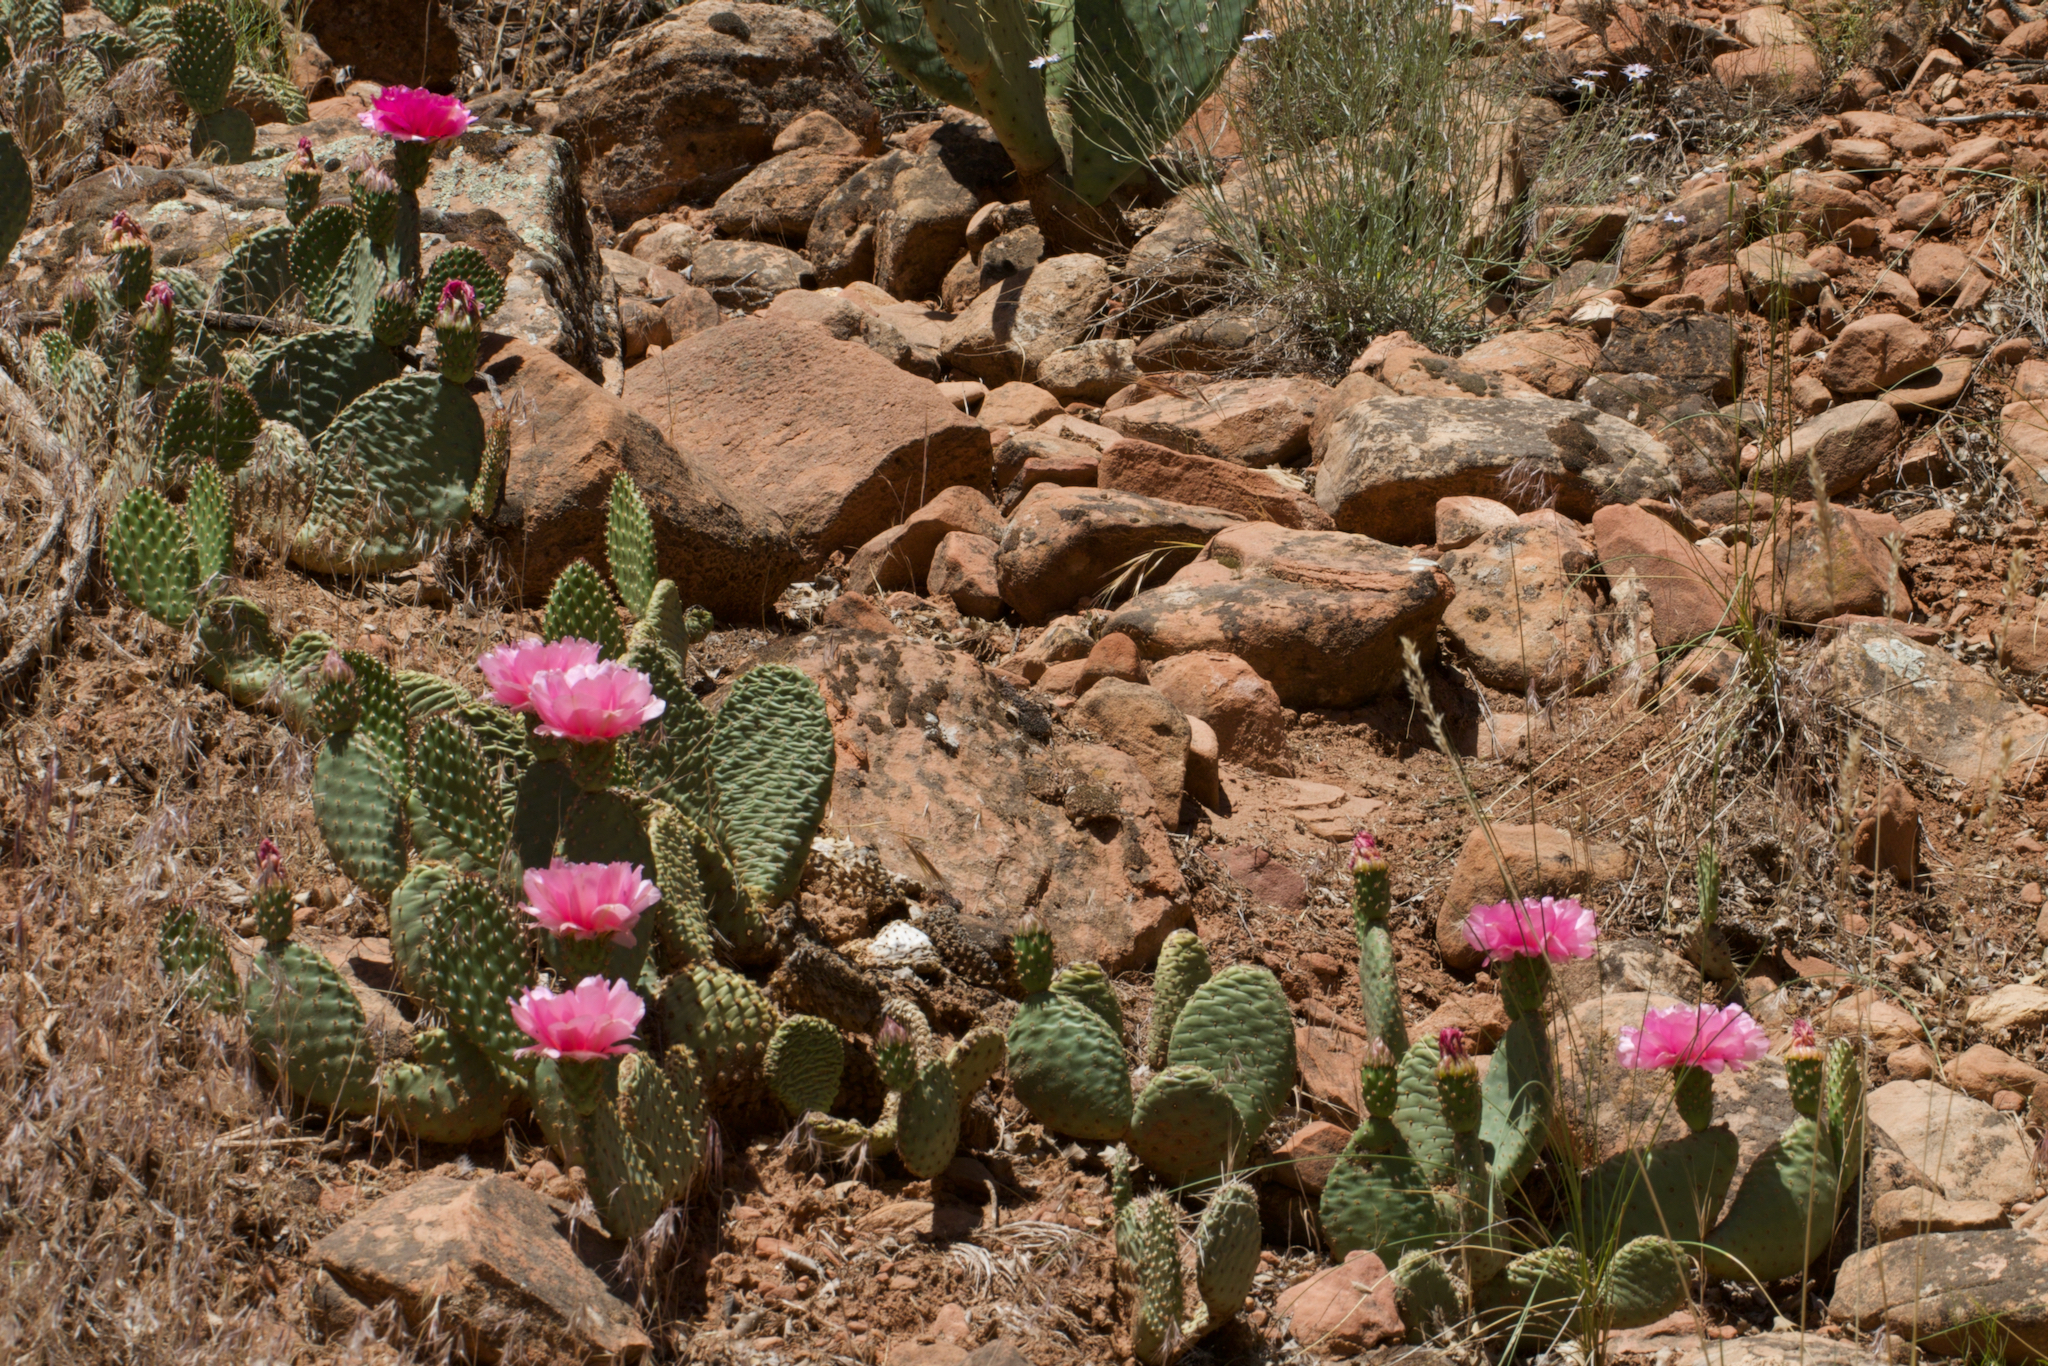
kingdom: Plantae
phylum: Tracheophyta
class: Magnoliopsida
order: Caryophyllales
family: Cactaceae
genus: Opuntia
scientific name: Opuntia aurea
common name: Golden prickly-pear
